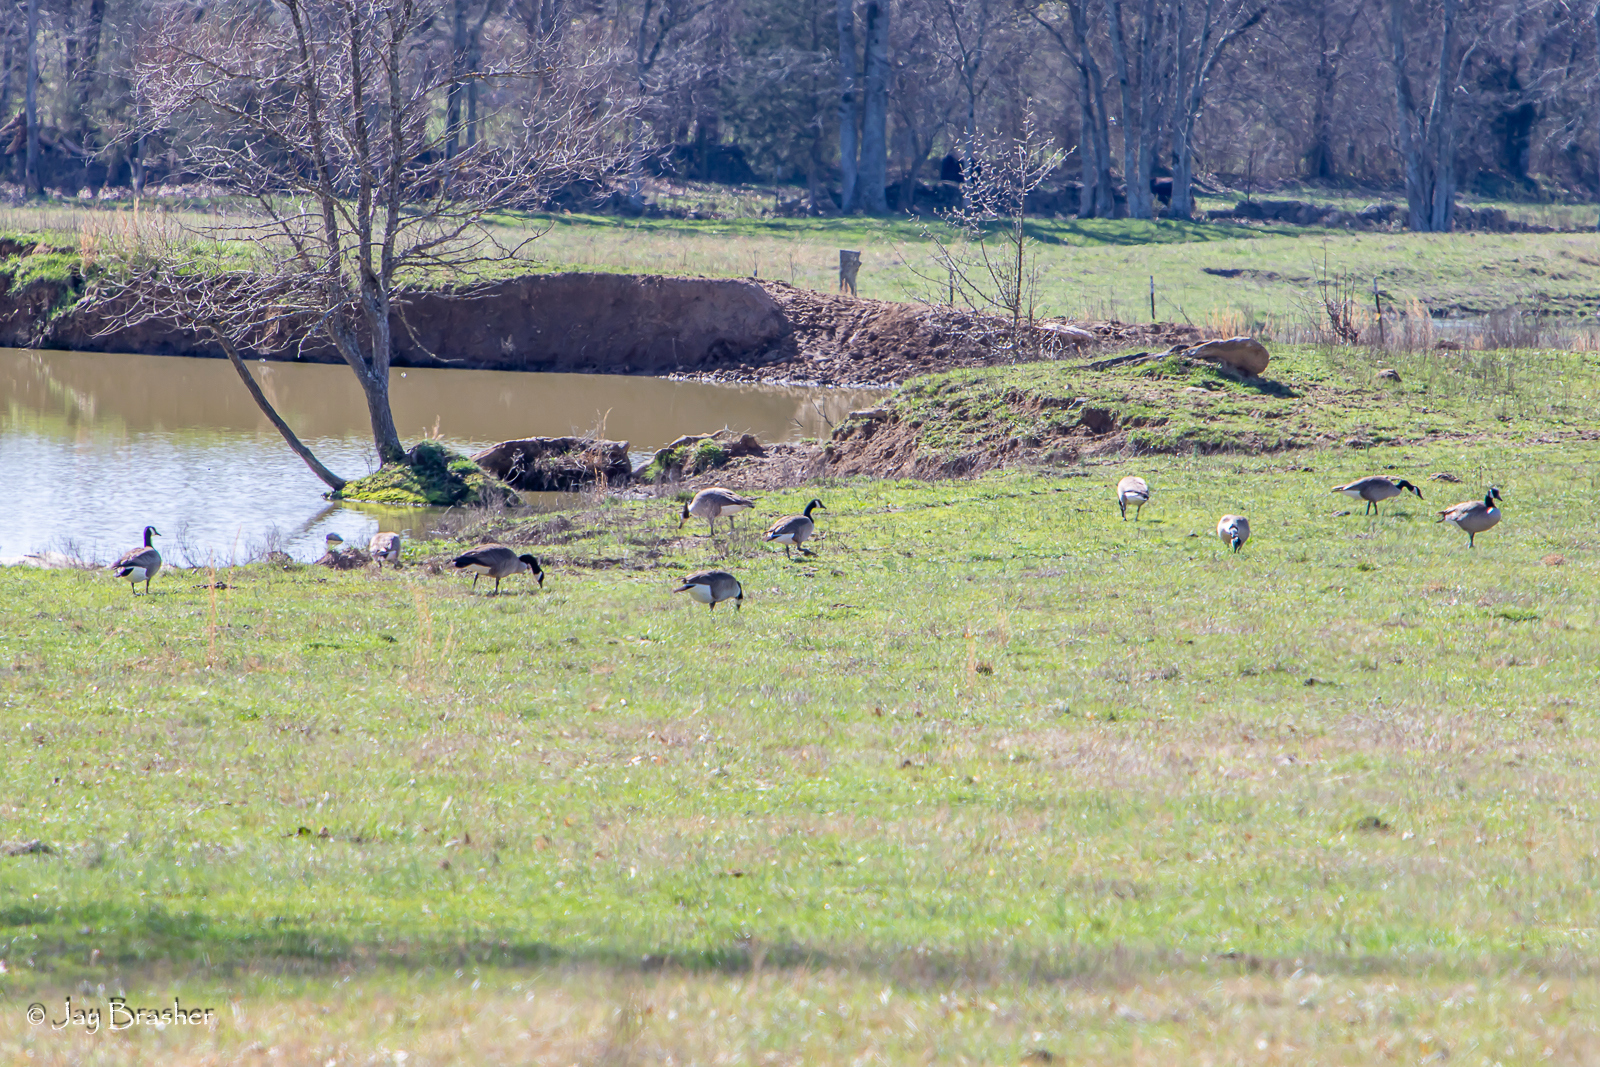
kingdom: Animalia
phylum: Chordata
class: Aves
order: Anseriformes
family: Anatidae
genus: Branta
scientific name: Branta canadensis
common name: Canada goose
